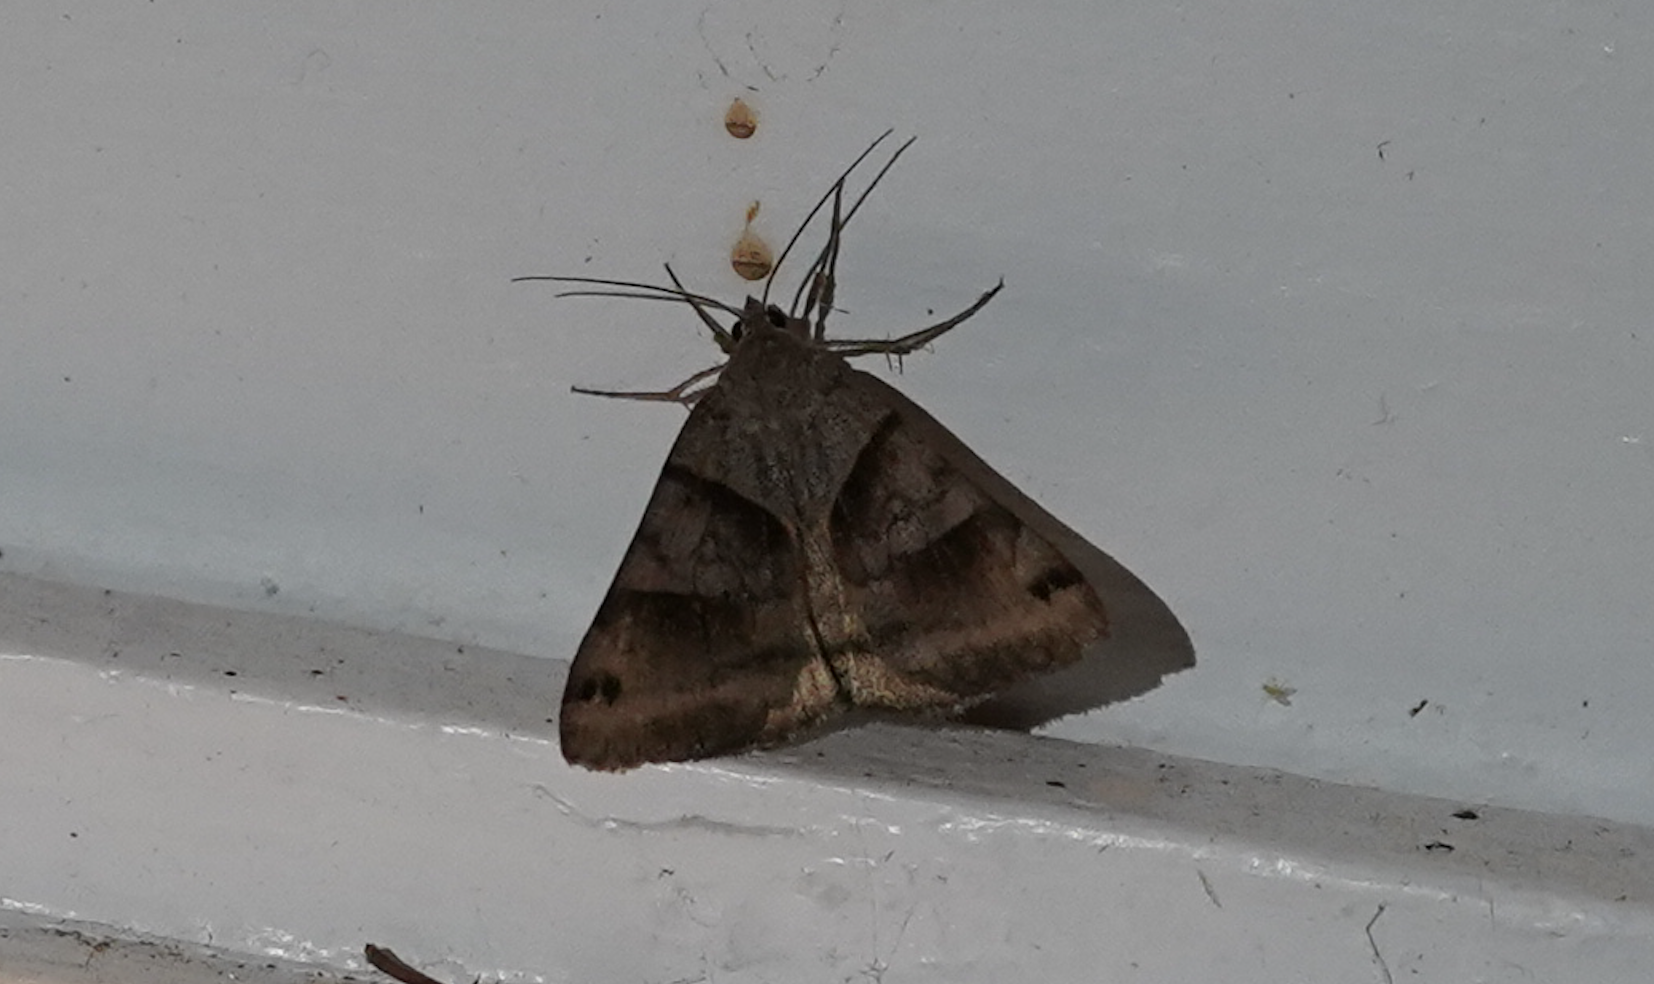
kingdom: Animalia
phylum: Arthropoda
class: Insecta
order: Lepidoptera
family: Erebidae
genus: Caenurgina
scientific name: Caenurgina erechtea
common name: Forage looper moth
